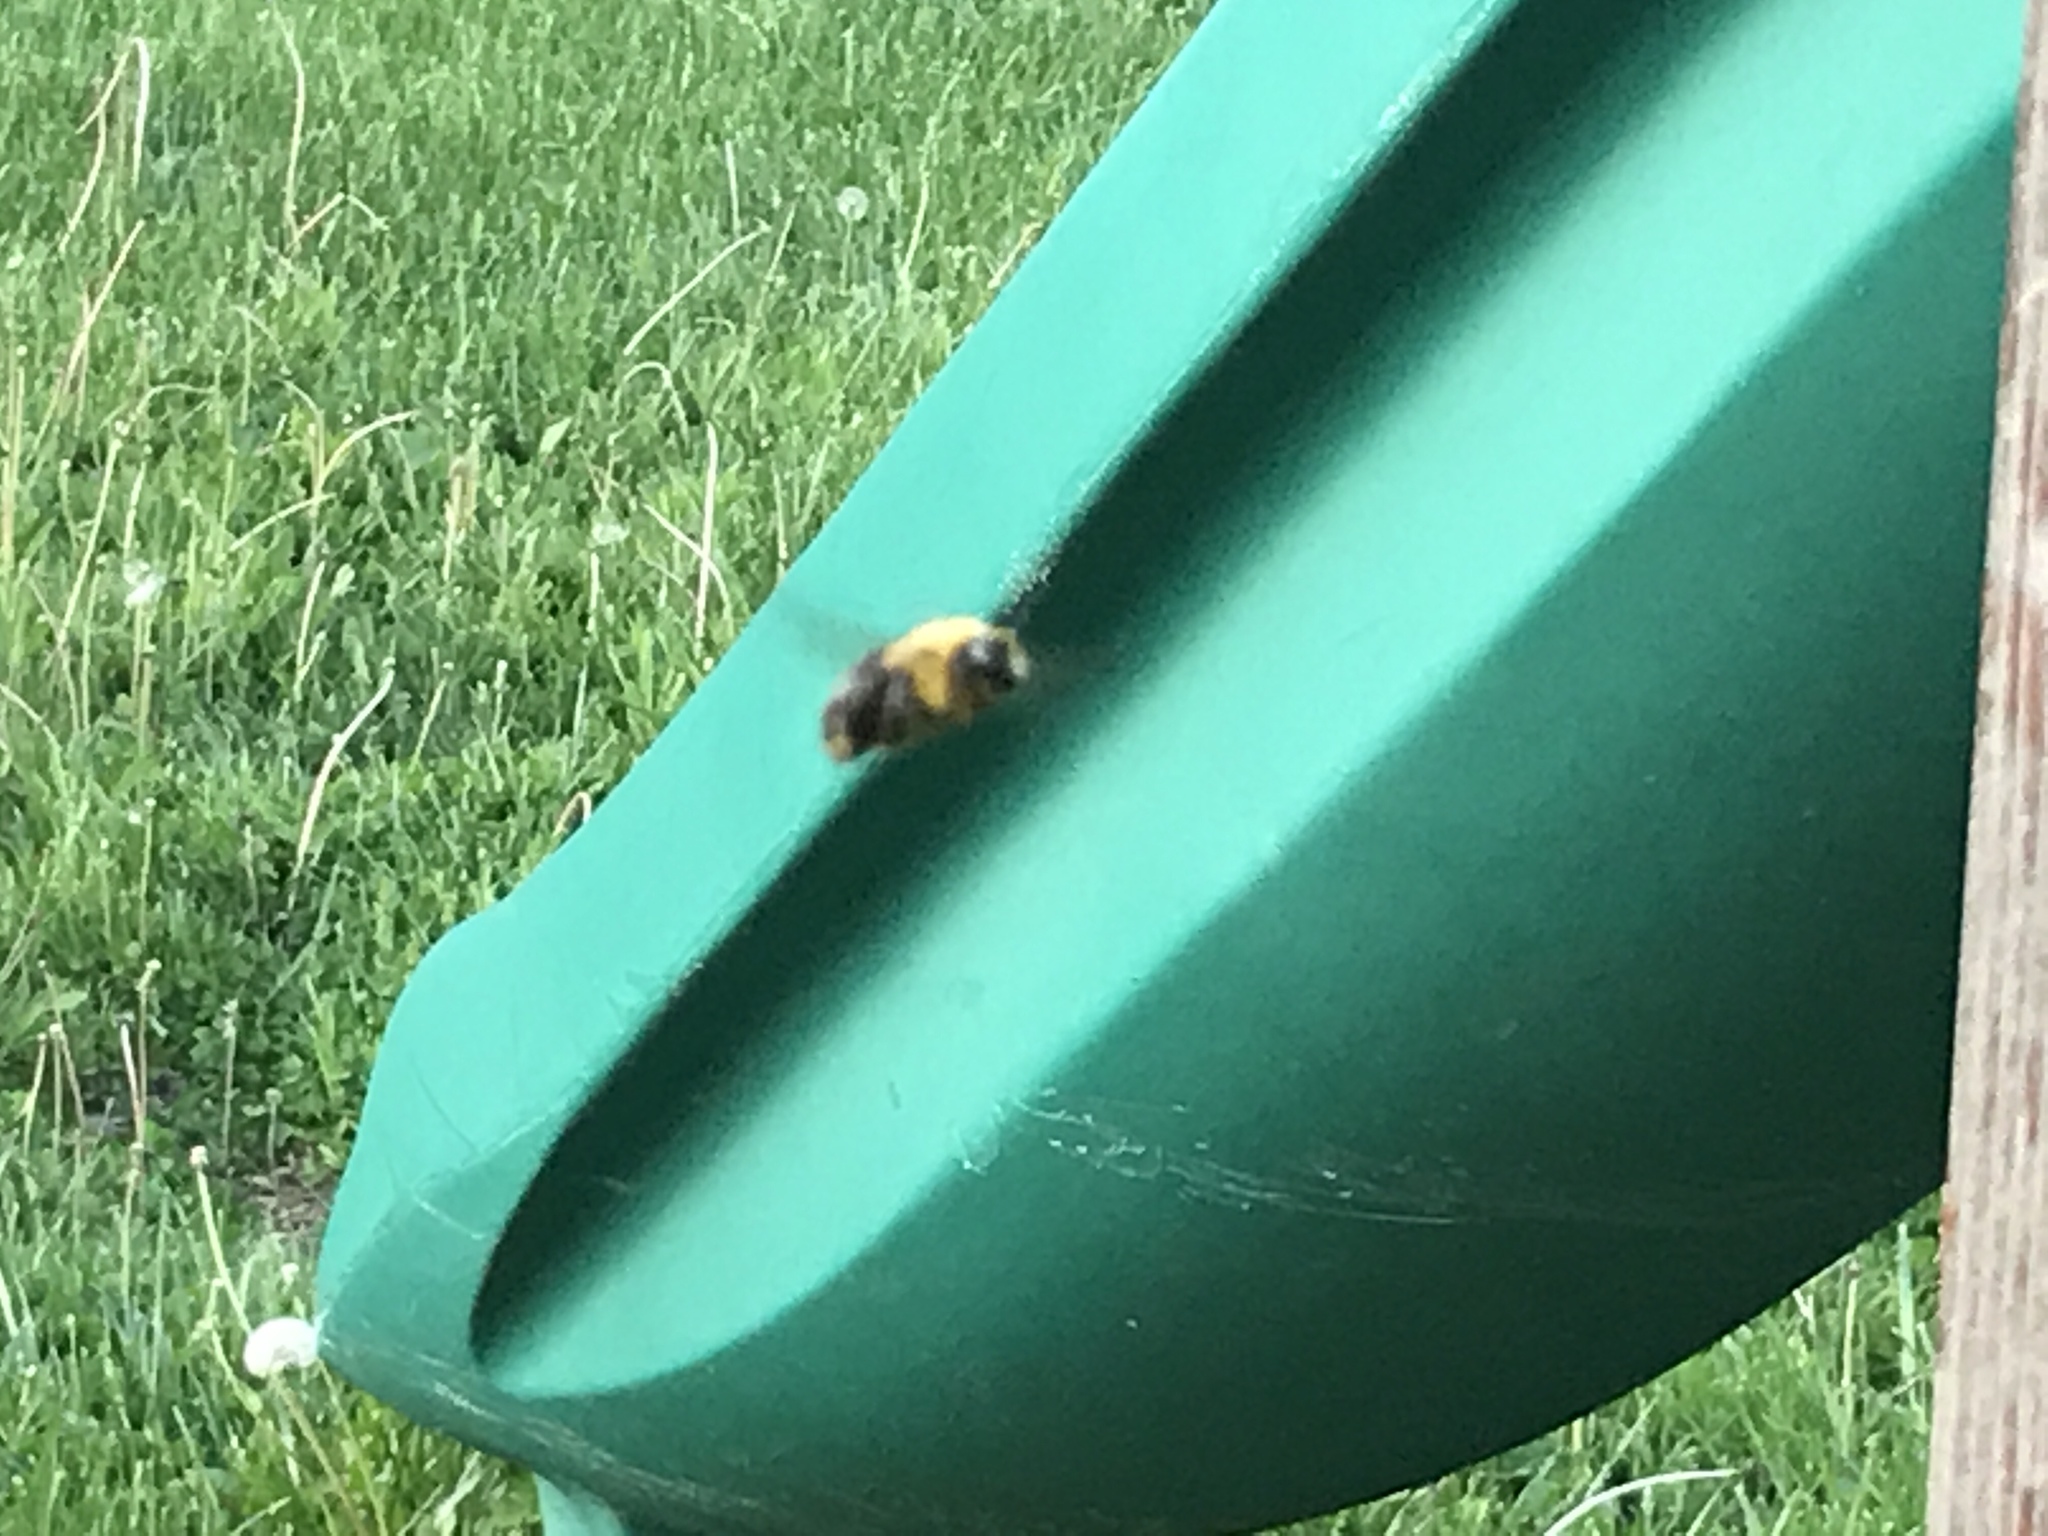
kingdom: Animalia
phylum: Arthropoda
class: Insecta
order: Hymenoptera
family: Apidae
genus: Xylocopa
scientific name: Xylocopa virginica
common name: Carpenter bee
